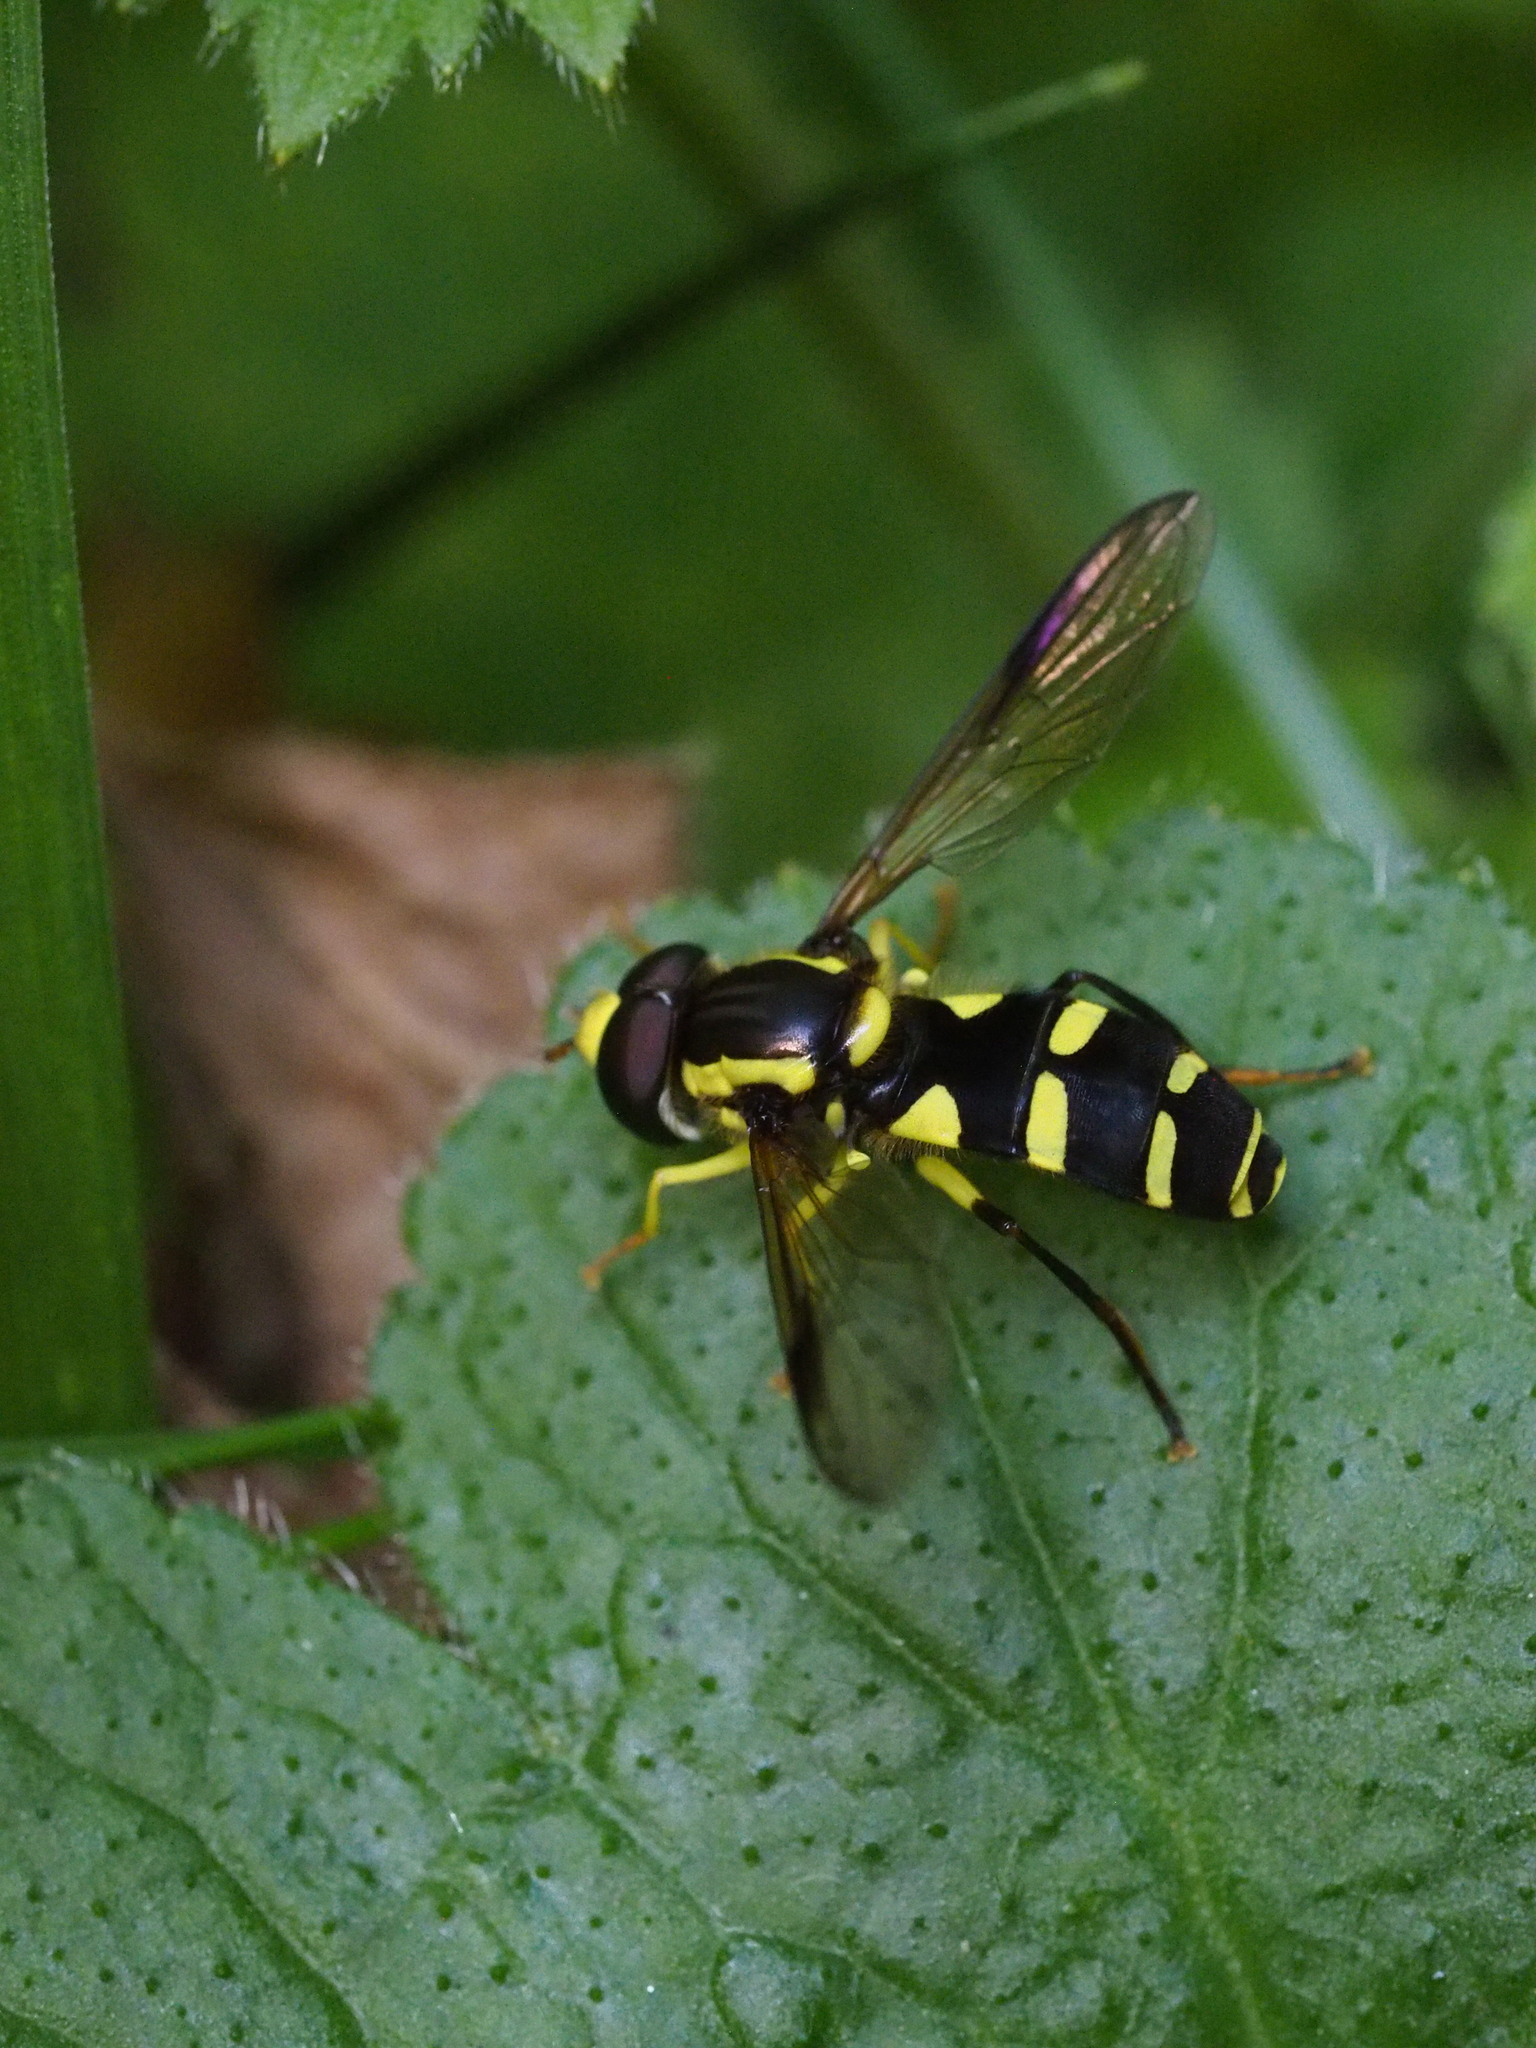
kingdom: Animalia
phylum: Arthropoda
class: Insecta
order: Diptera
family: Syrphidae
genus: Philhelius
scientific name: Philhelius dives
